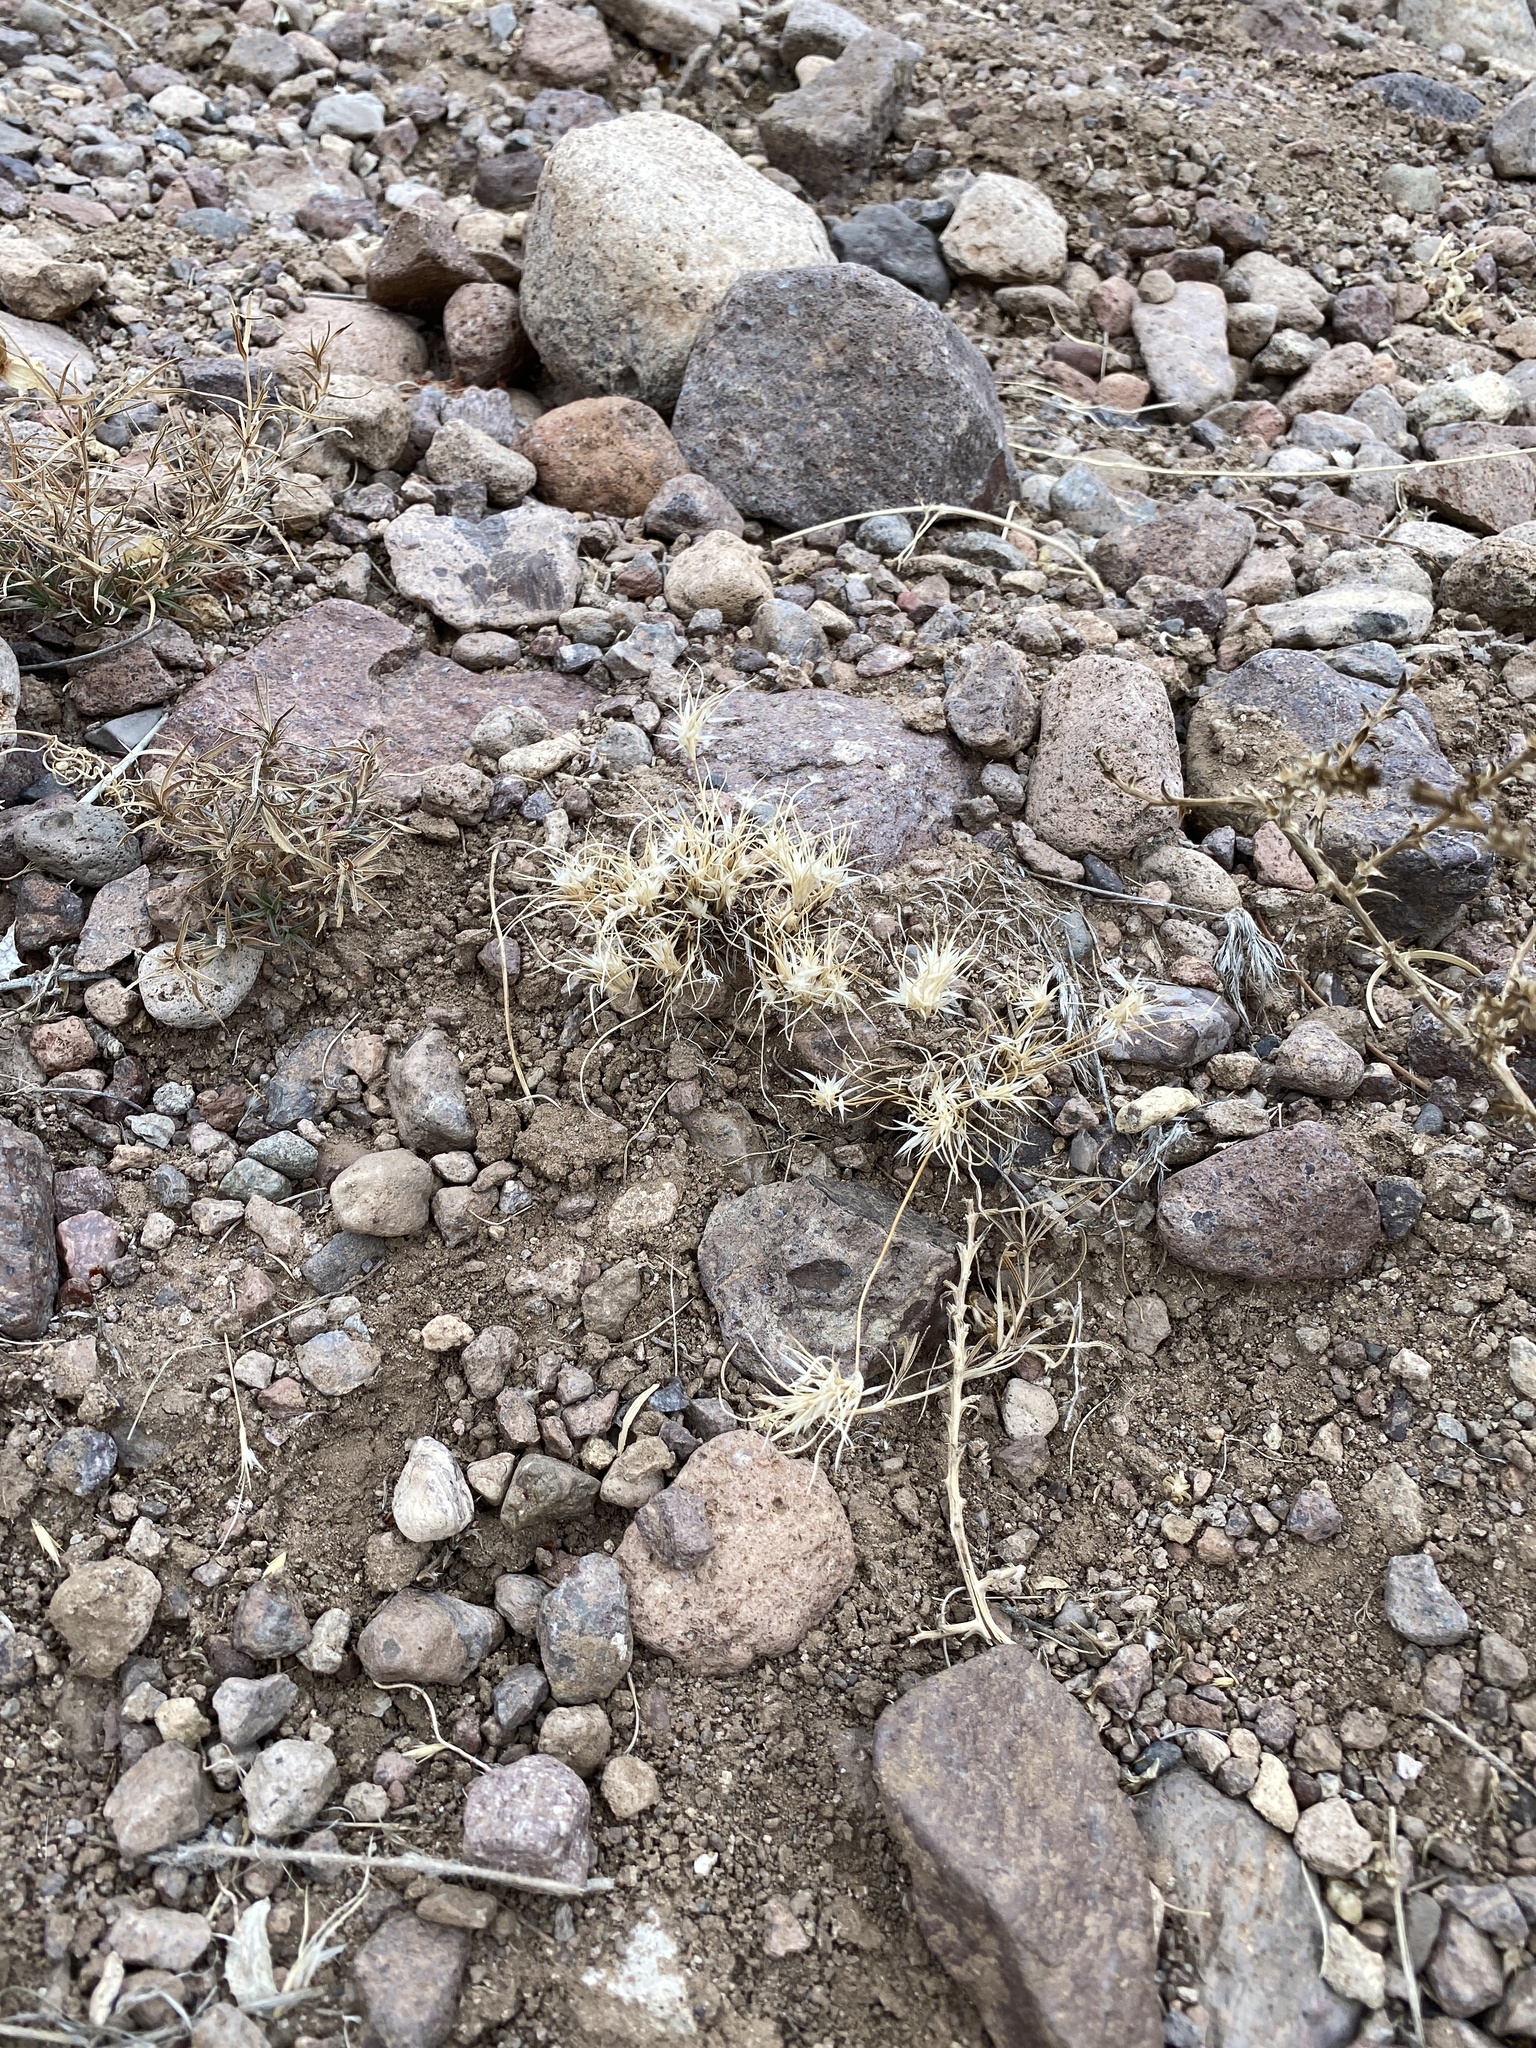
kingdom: Plantae
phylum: Tracheophyta
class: Liliopsida
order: Poales
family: Poaceae
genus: Dasyochloa
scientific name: Dasyochloa pulchella
